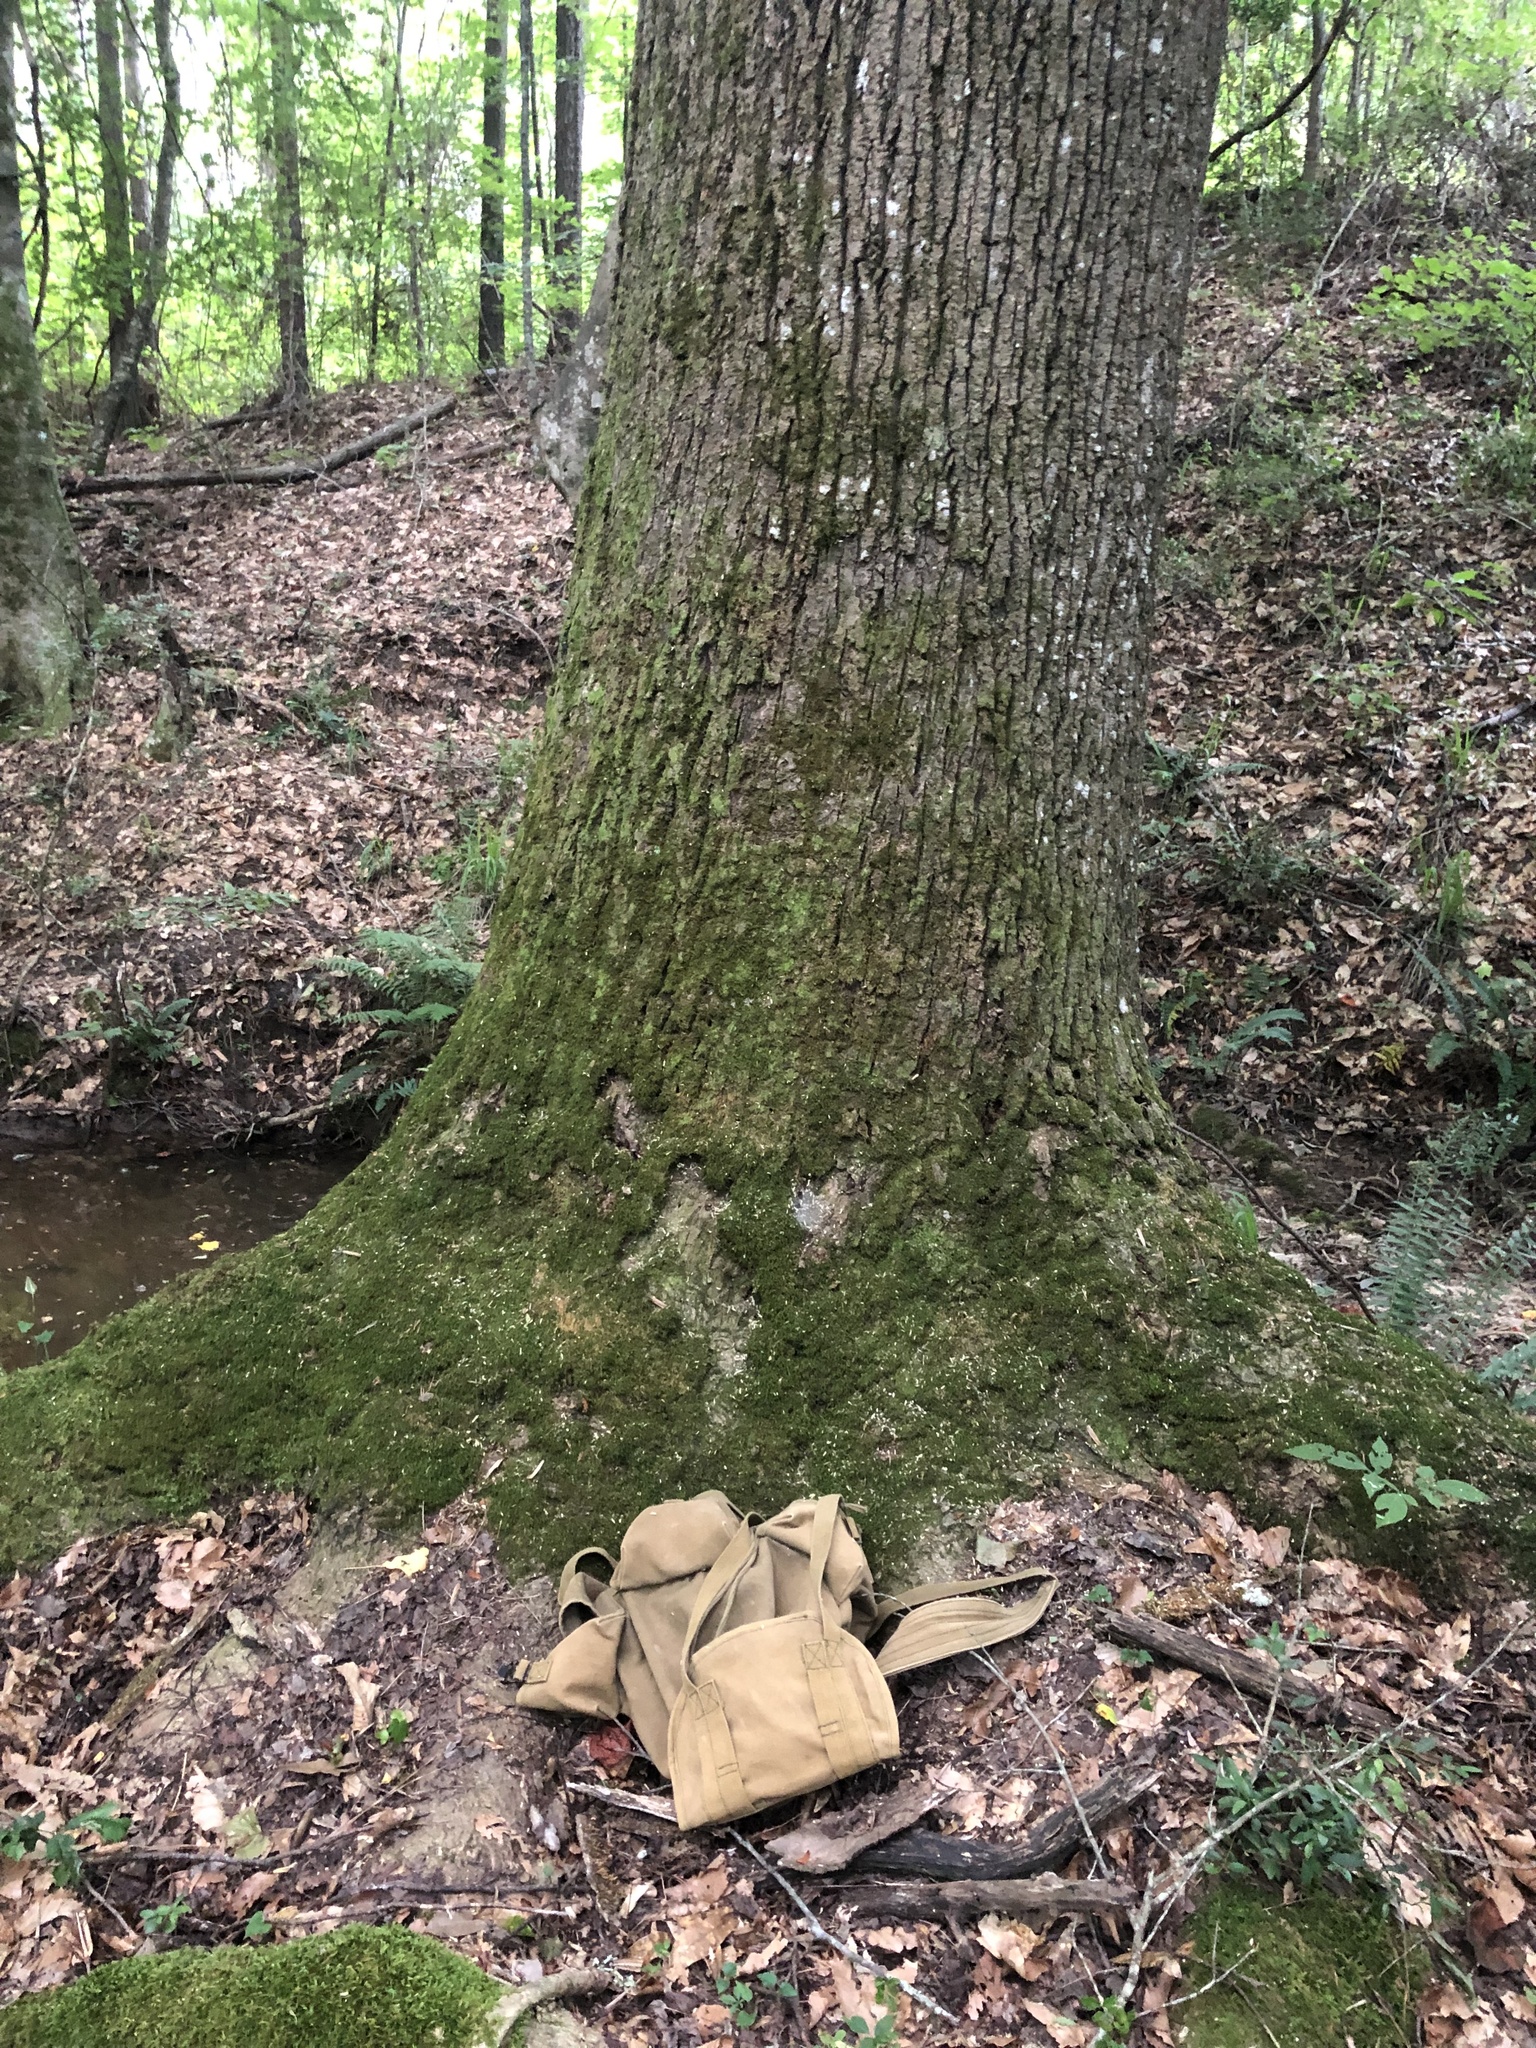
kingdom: Plantae
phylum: Tracheophyta
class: Magnoliopsida
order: Magnoliales
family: Magnoliaceae
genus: Liriodendron
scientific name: Liriodendron tulipifera
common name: Tulip tree
